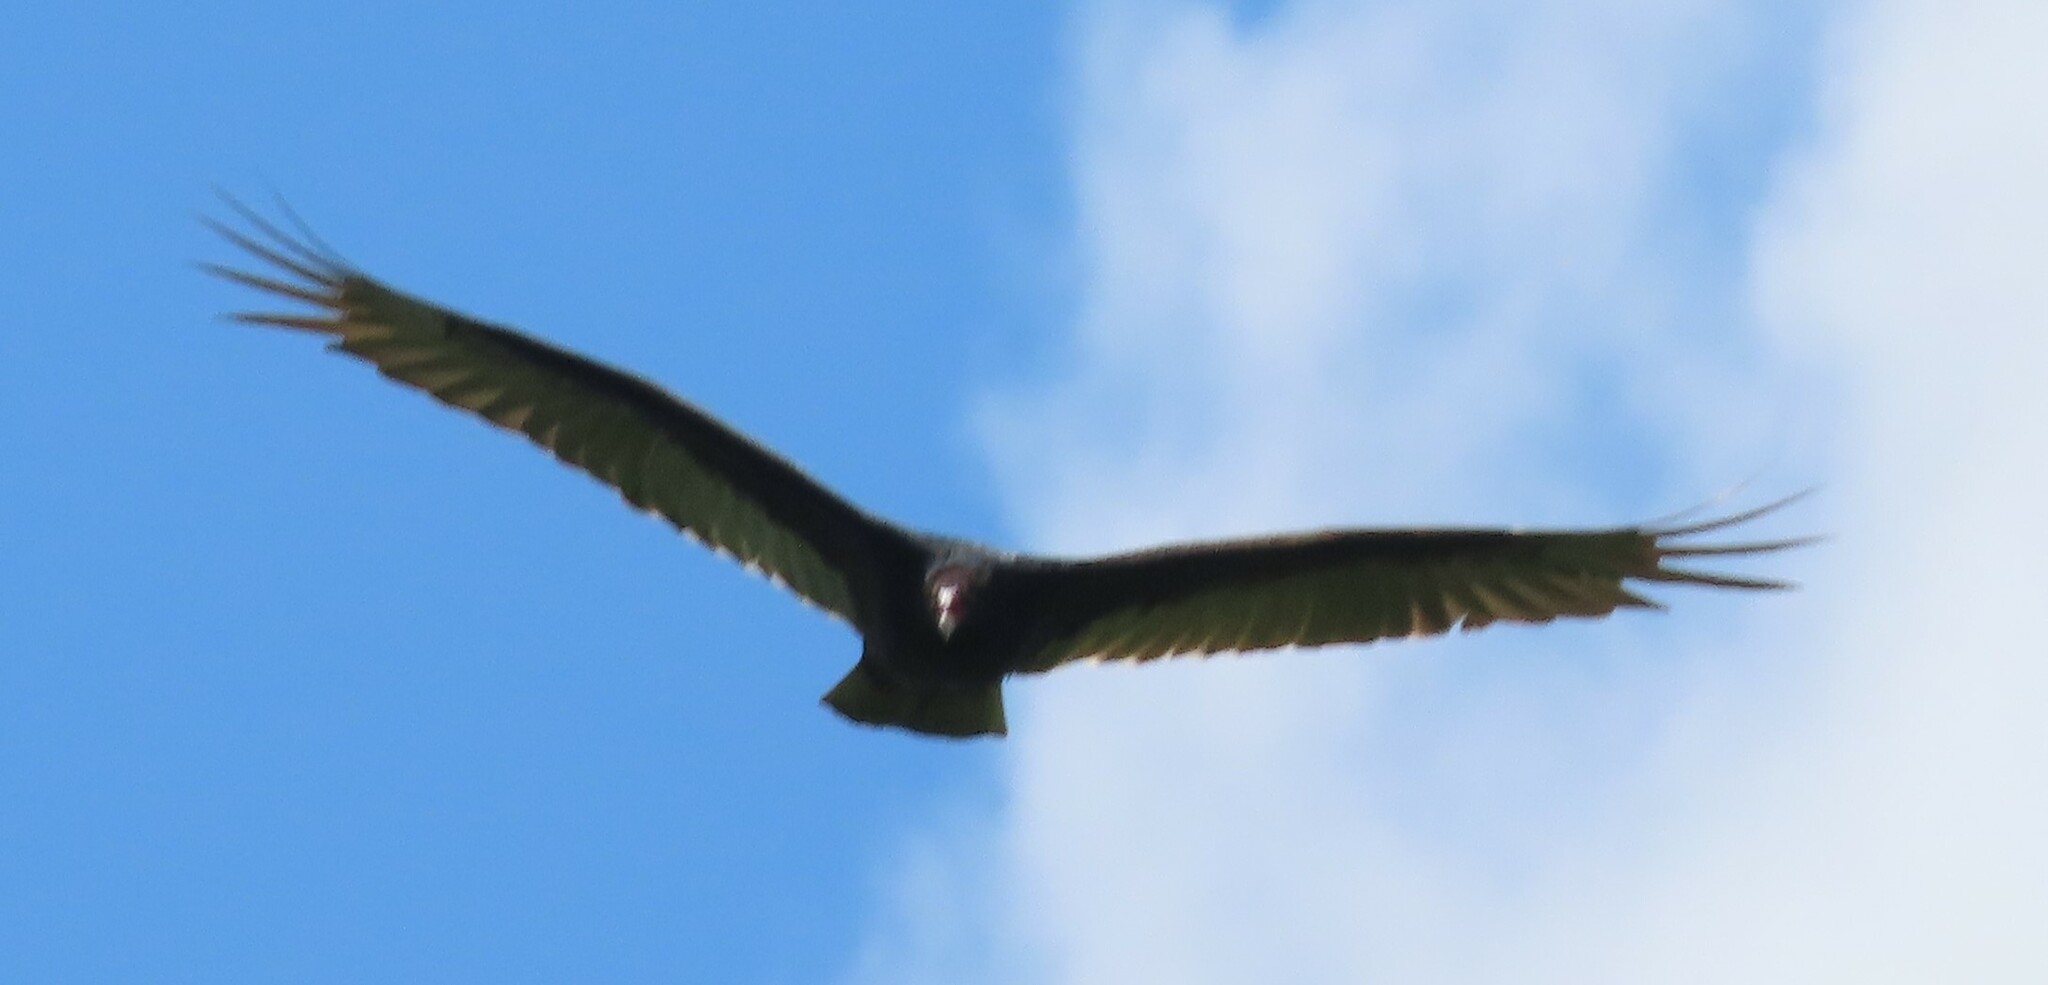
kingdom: Animalia
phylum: Chordata
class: Aves
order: Accipitriformes
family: Cathartidae
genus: Cathartes
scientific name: Cathartes aura
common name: Turkey vulture
